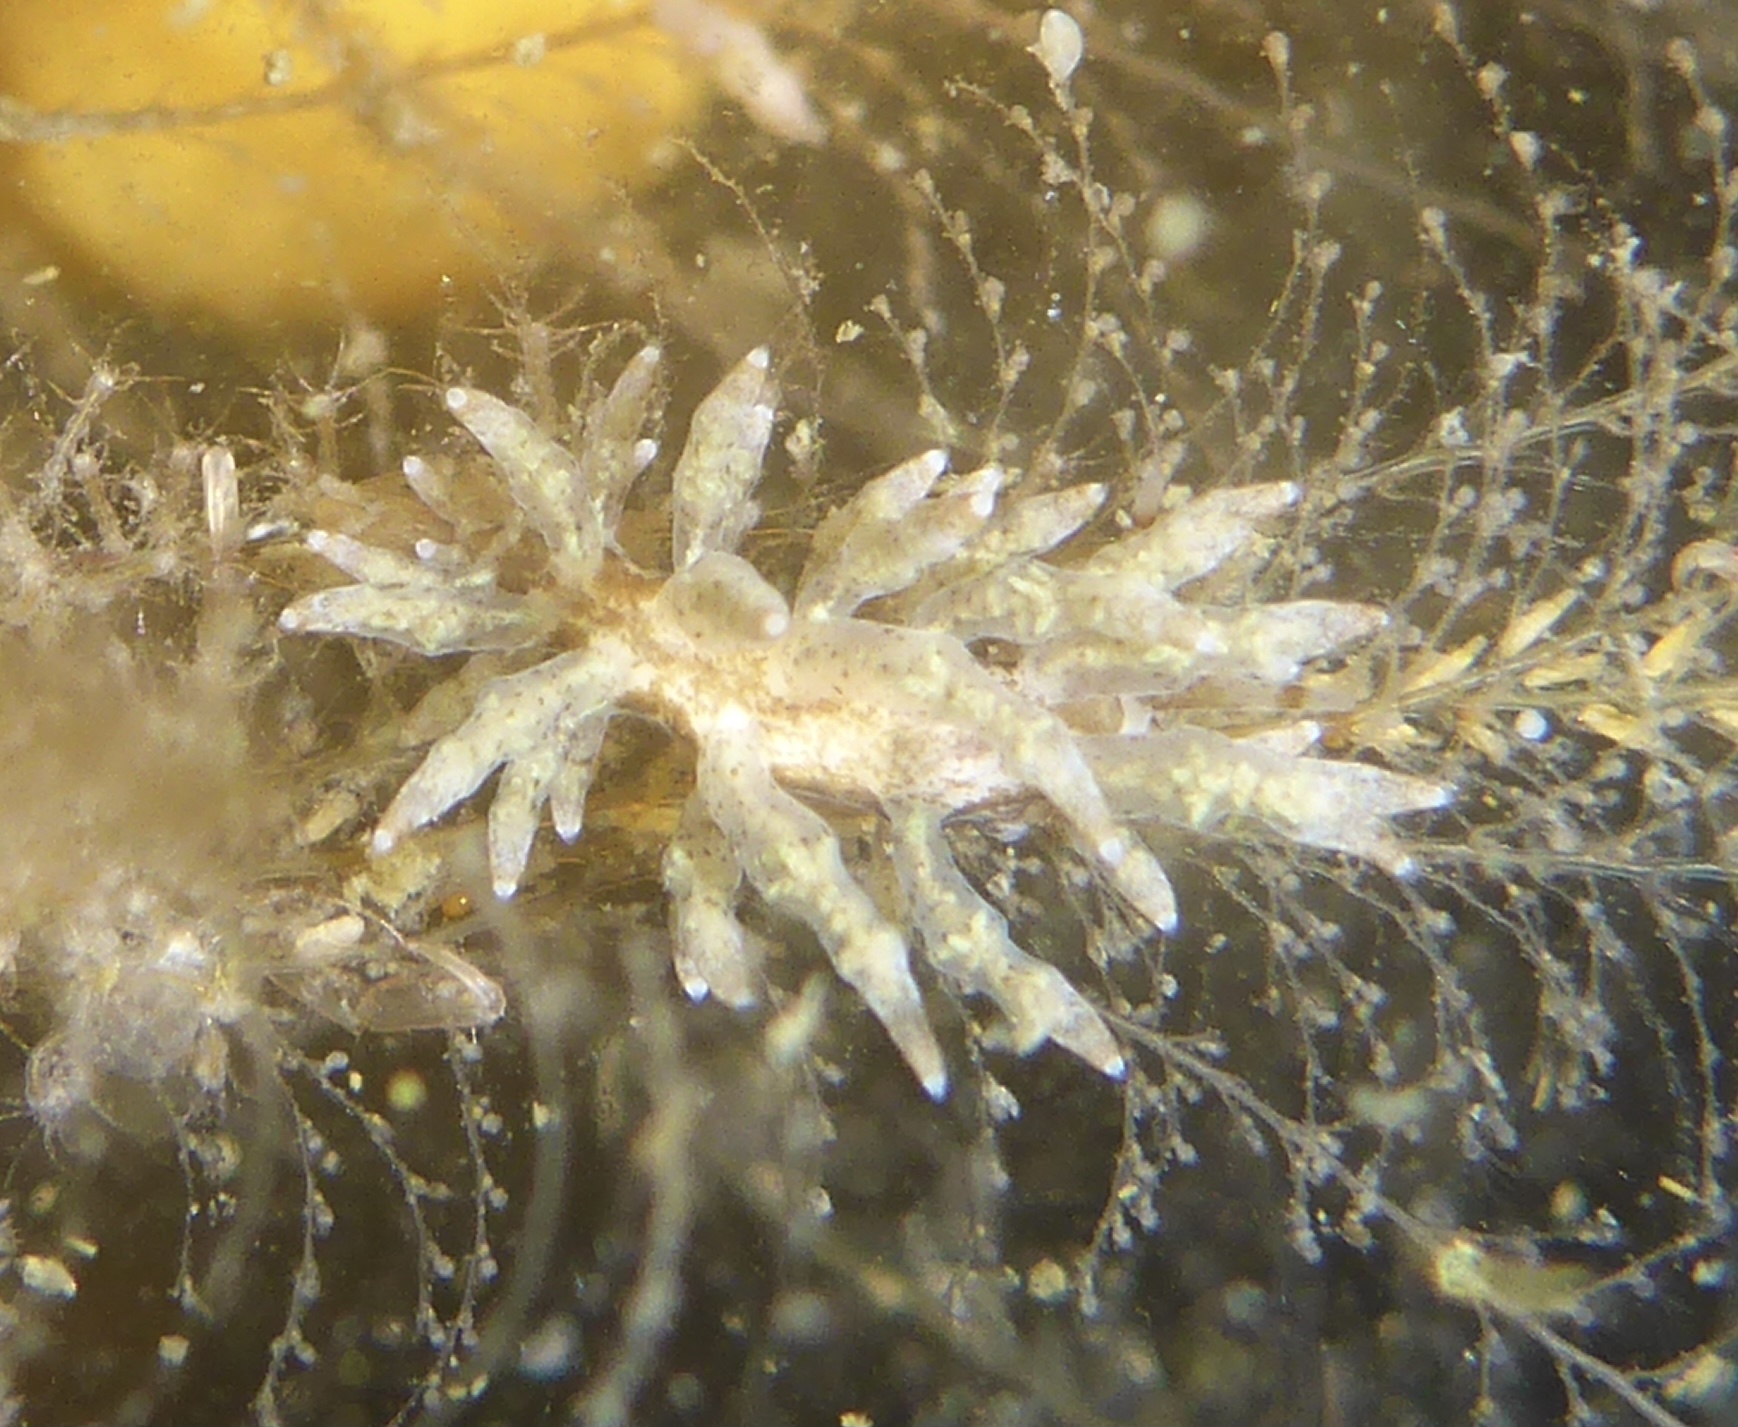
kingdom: Animalia
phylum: Mollusca
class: Gastropoda
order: Nudibranchia
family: Eubranchidae
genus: Eubranchus
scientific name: Eubranchus rustyus
